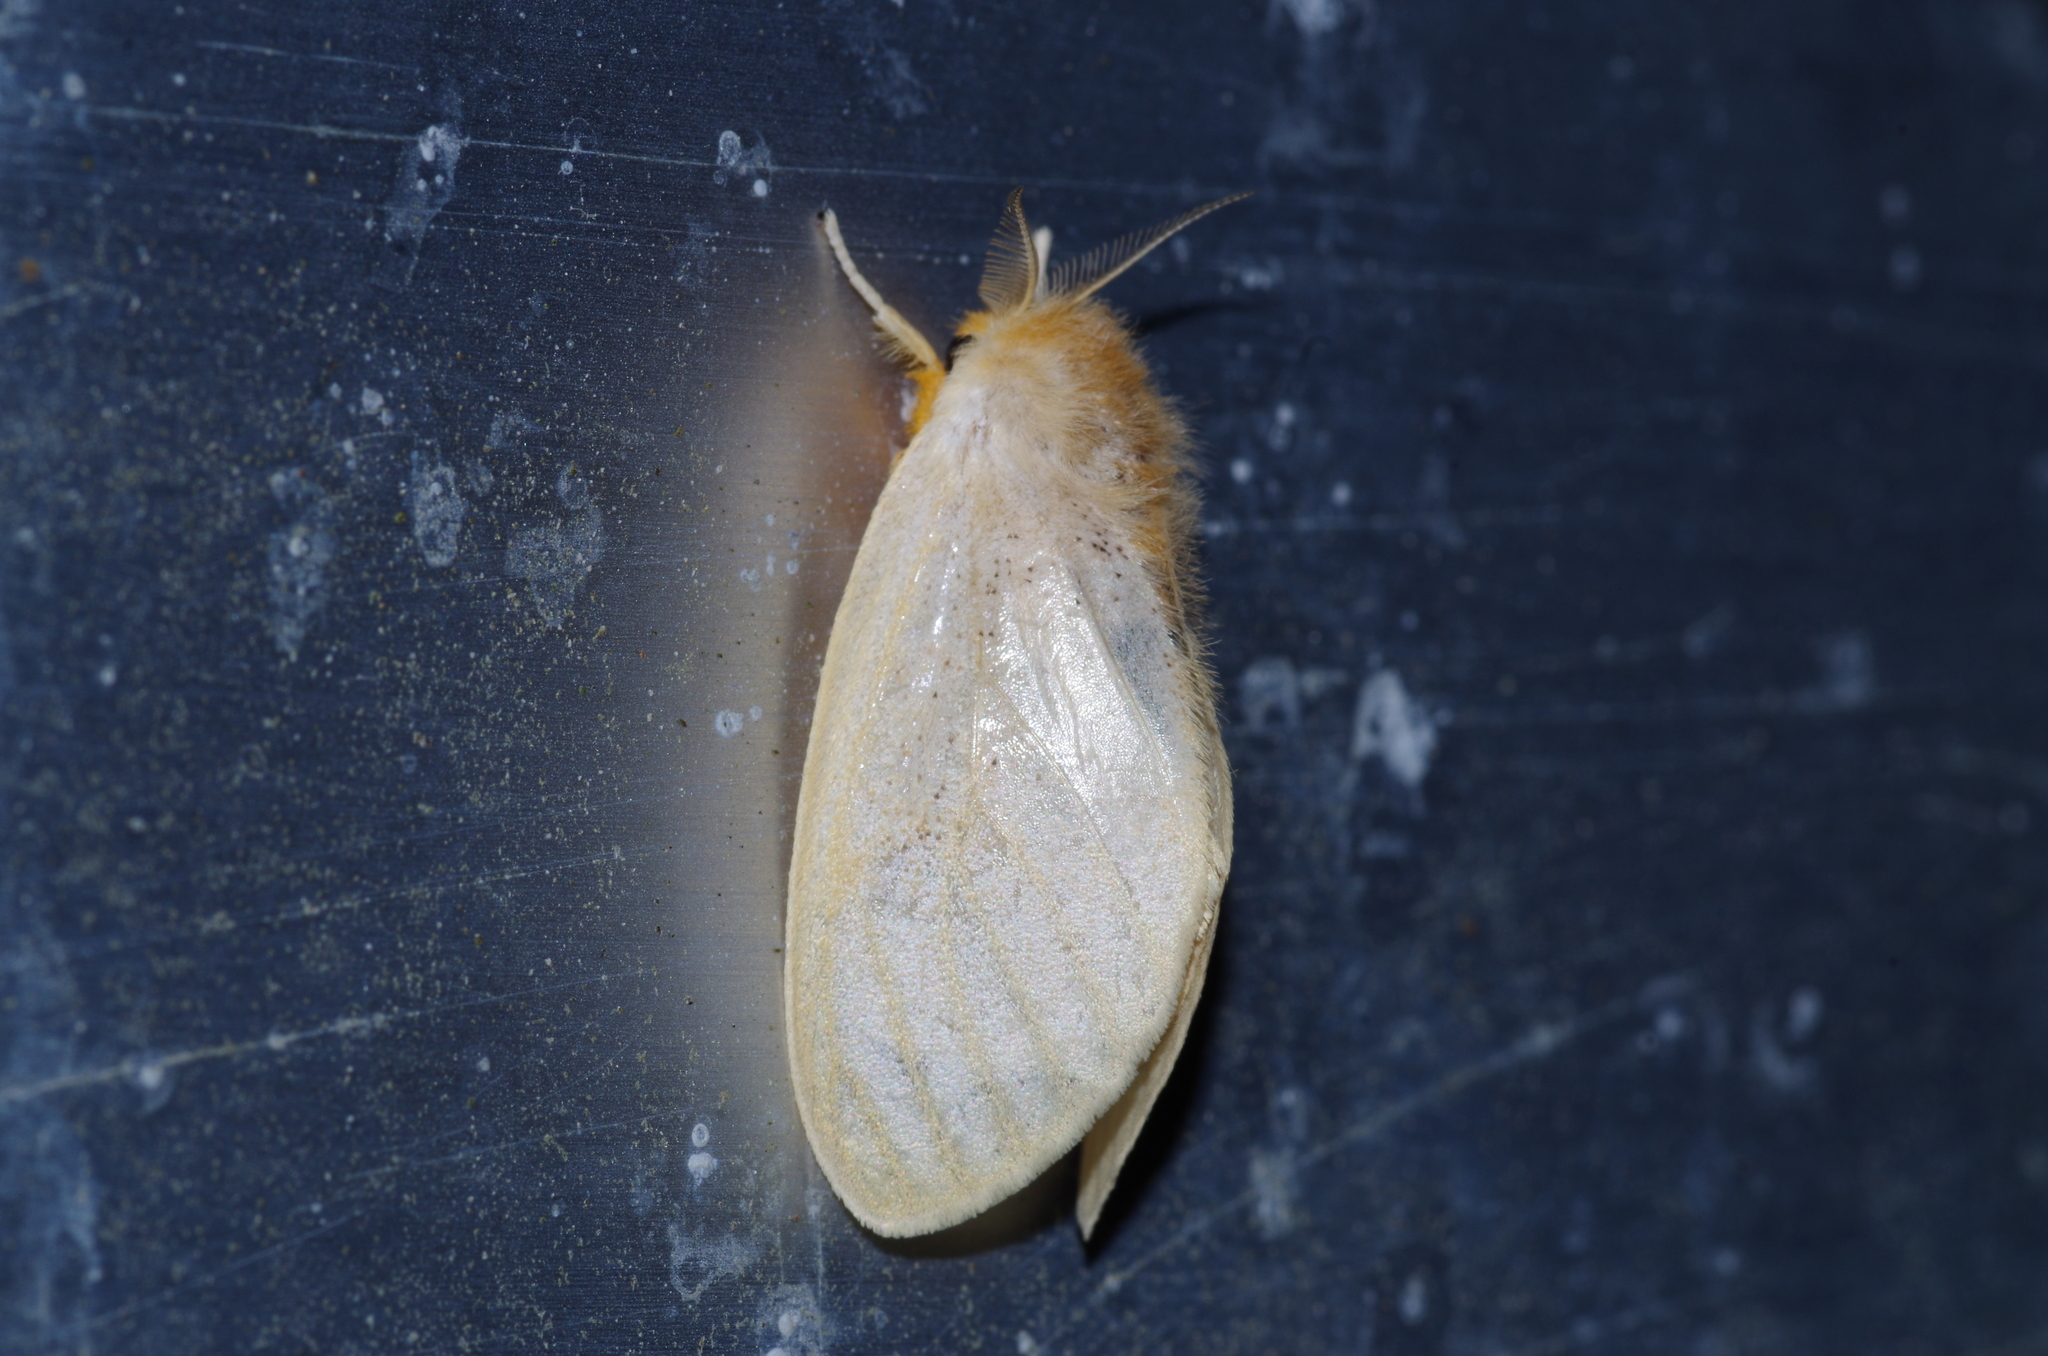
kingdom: Animalia
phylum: Arthropoda
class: Insecta
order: Lepidoptera
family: Erebidae
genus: Perina
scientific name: Perina nuda
